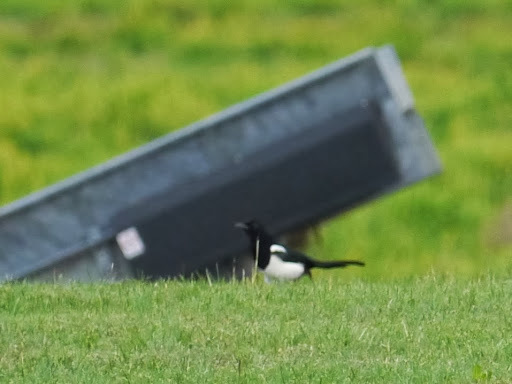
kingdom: Animalia
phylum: Chordata
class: Aves
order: Passeriformes
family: Corvidae
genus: Pica
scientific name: Pica pica
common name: Eurasian magpie
